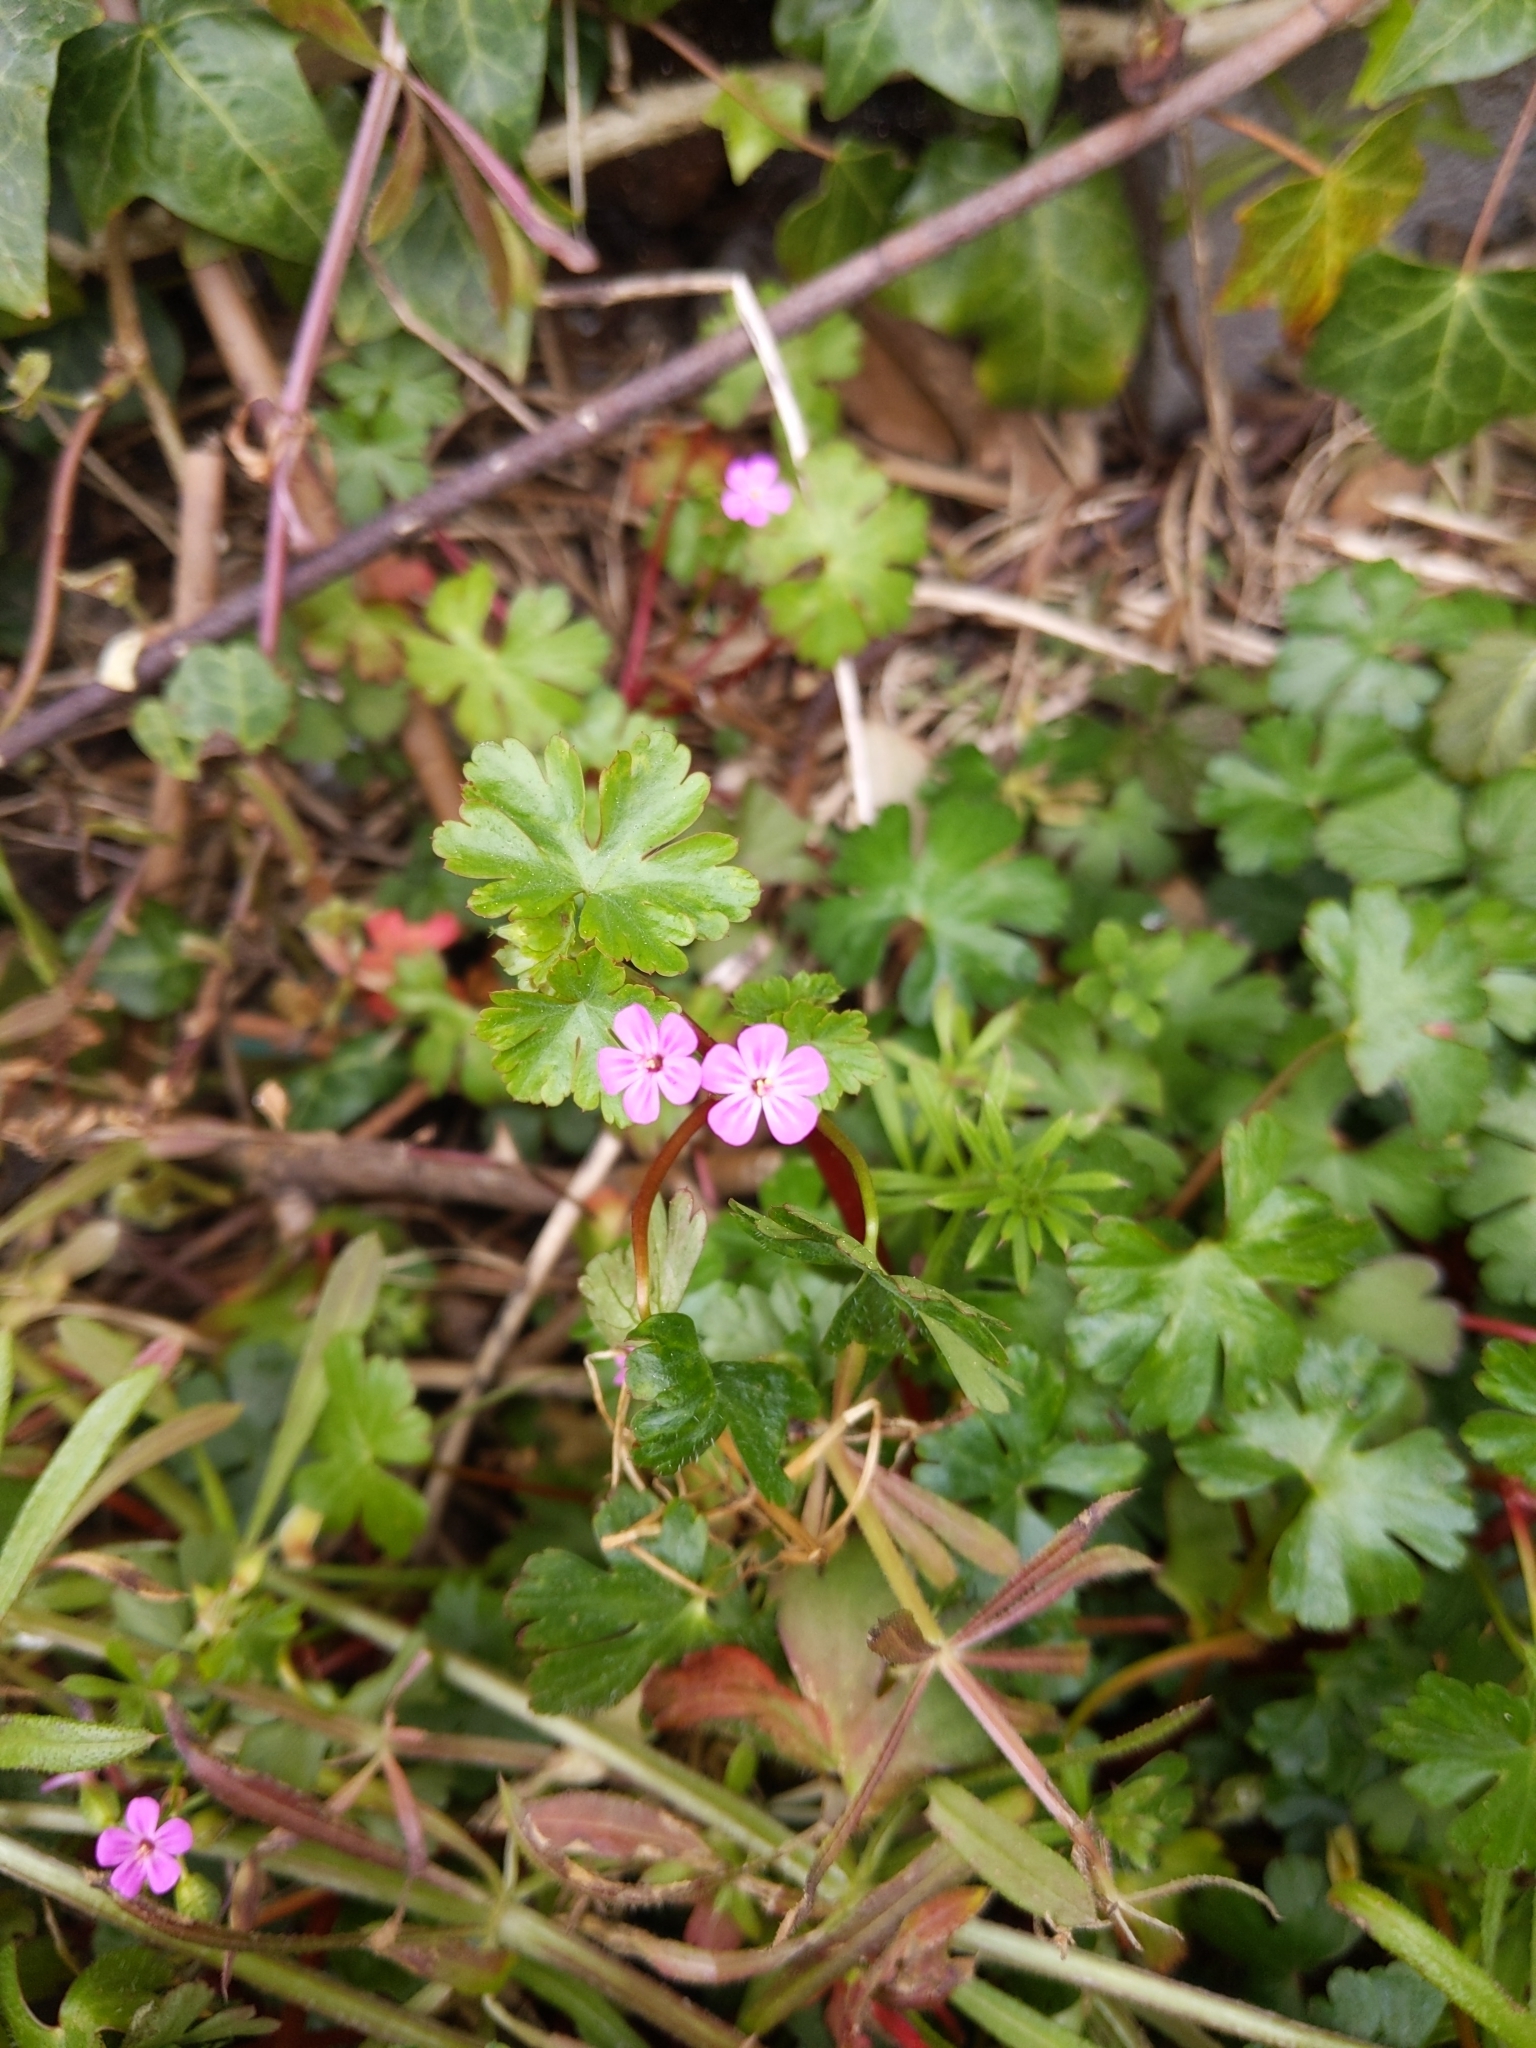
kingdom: Plantae
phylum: Tracheophyta
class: Magnoliopsida
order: Geraniales
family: Geraniaceae
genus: Geranium
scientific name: Geranium lucidum
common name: Shining crane's-bill
